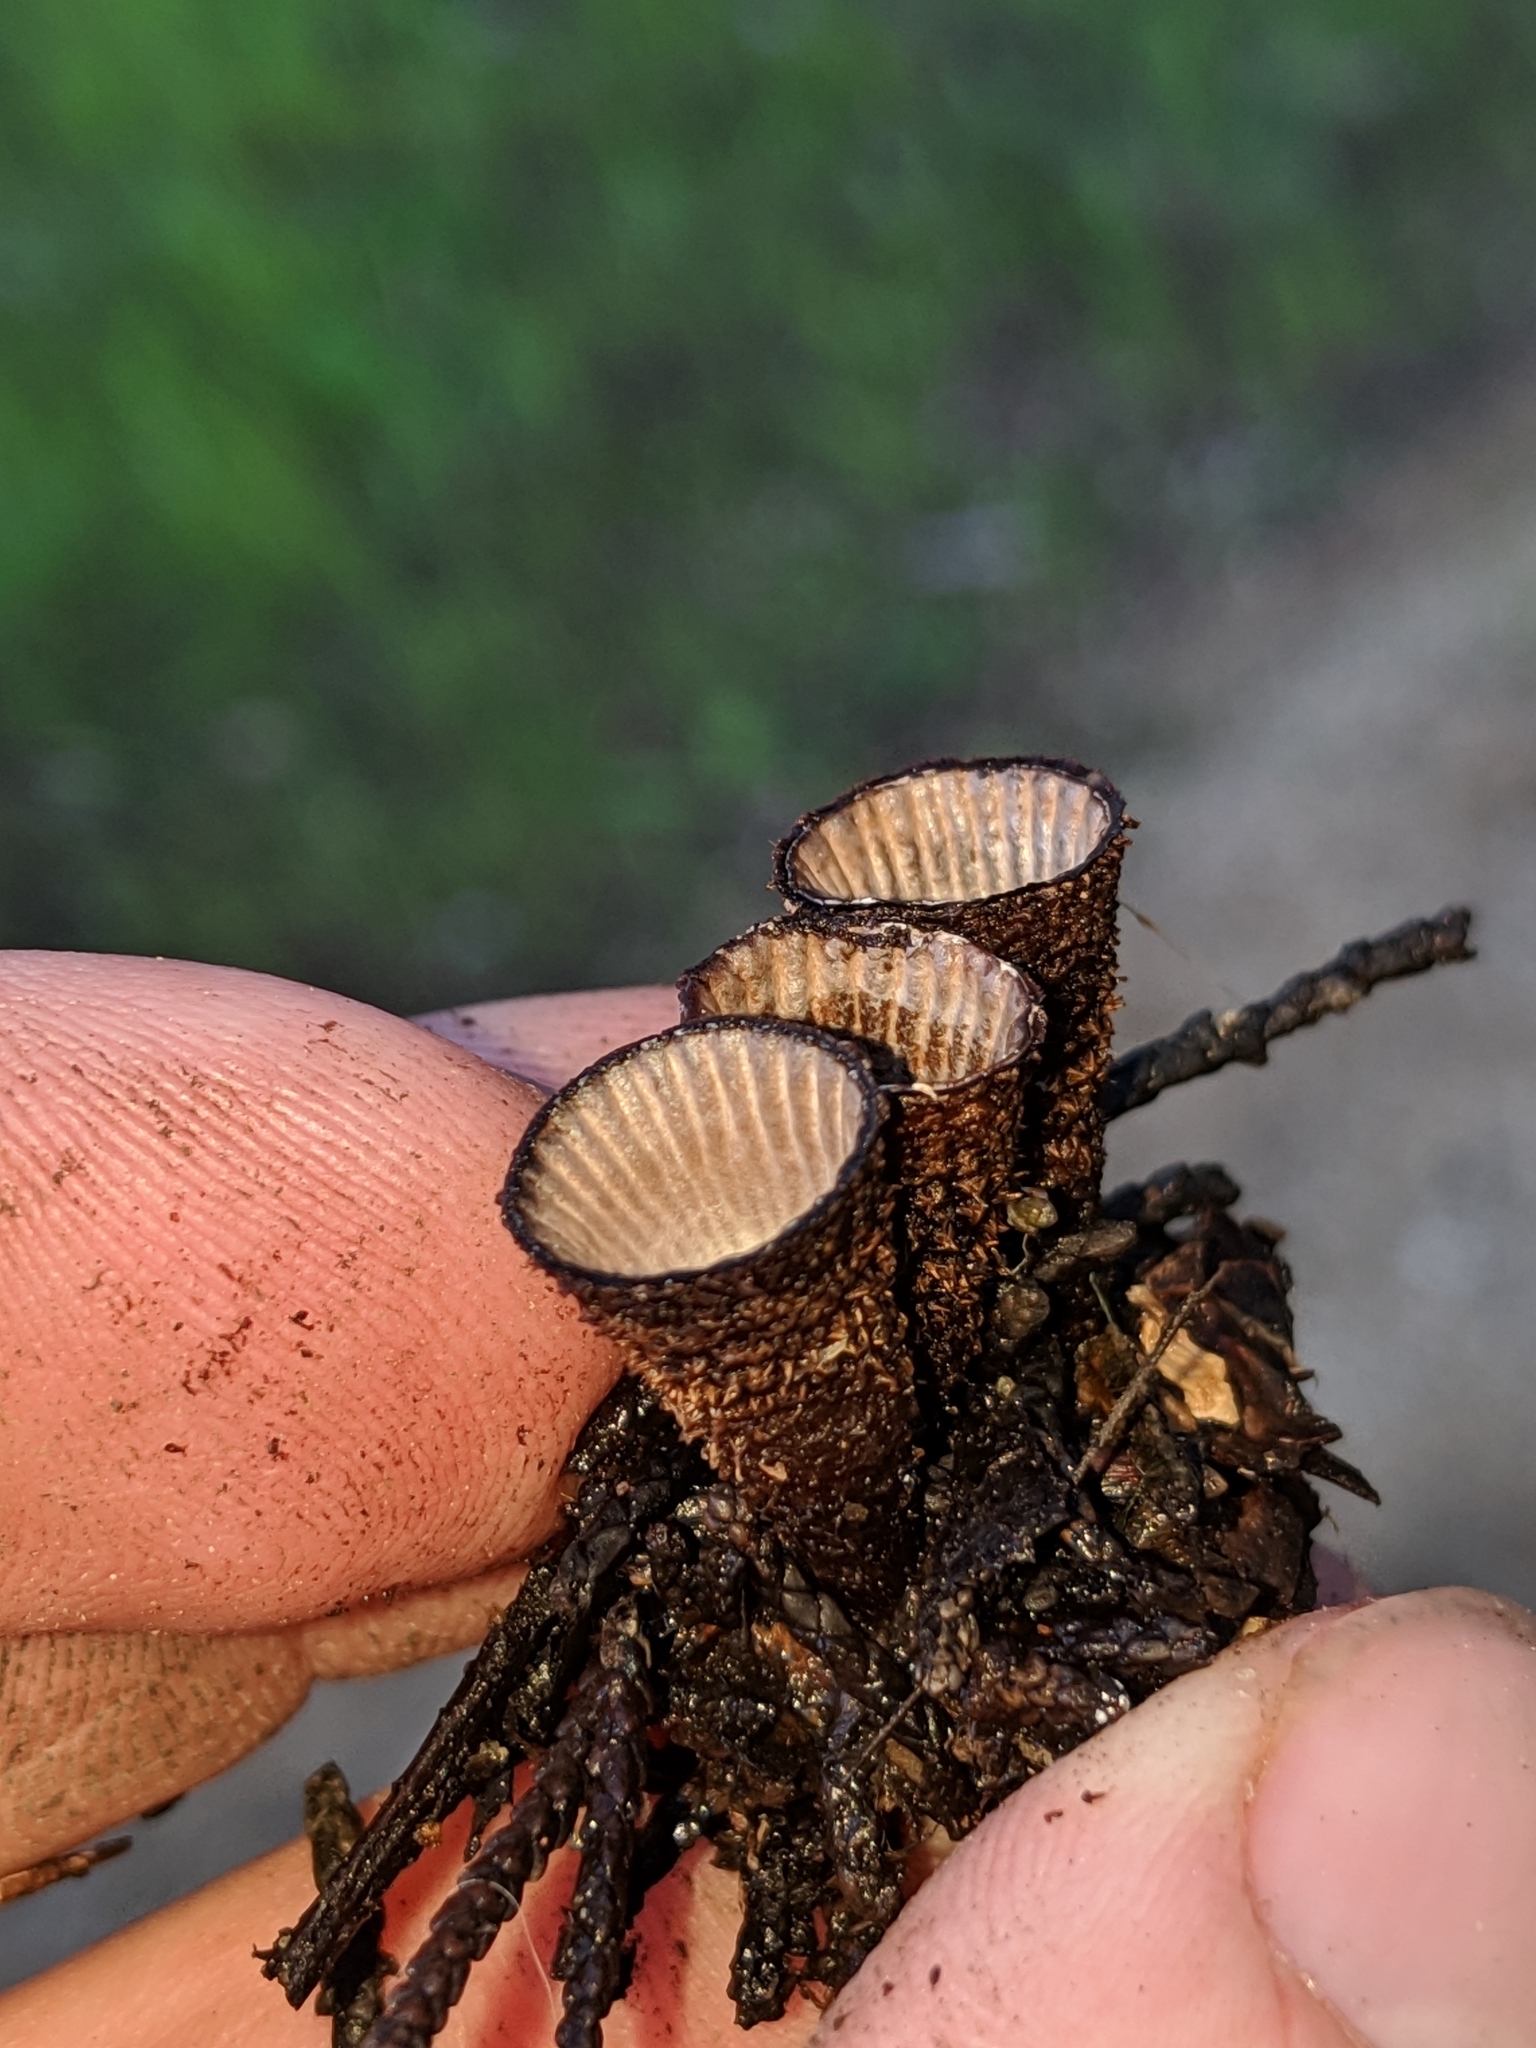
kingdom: Fungi
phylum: Basidiomycota
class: Agaricomycetes
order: Agaricales
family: Agaricaceae
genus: Cyathus
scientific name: Cyathus striatus
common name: Fluted bird's nest
